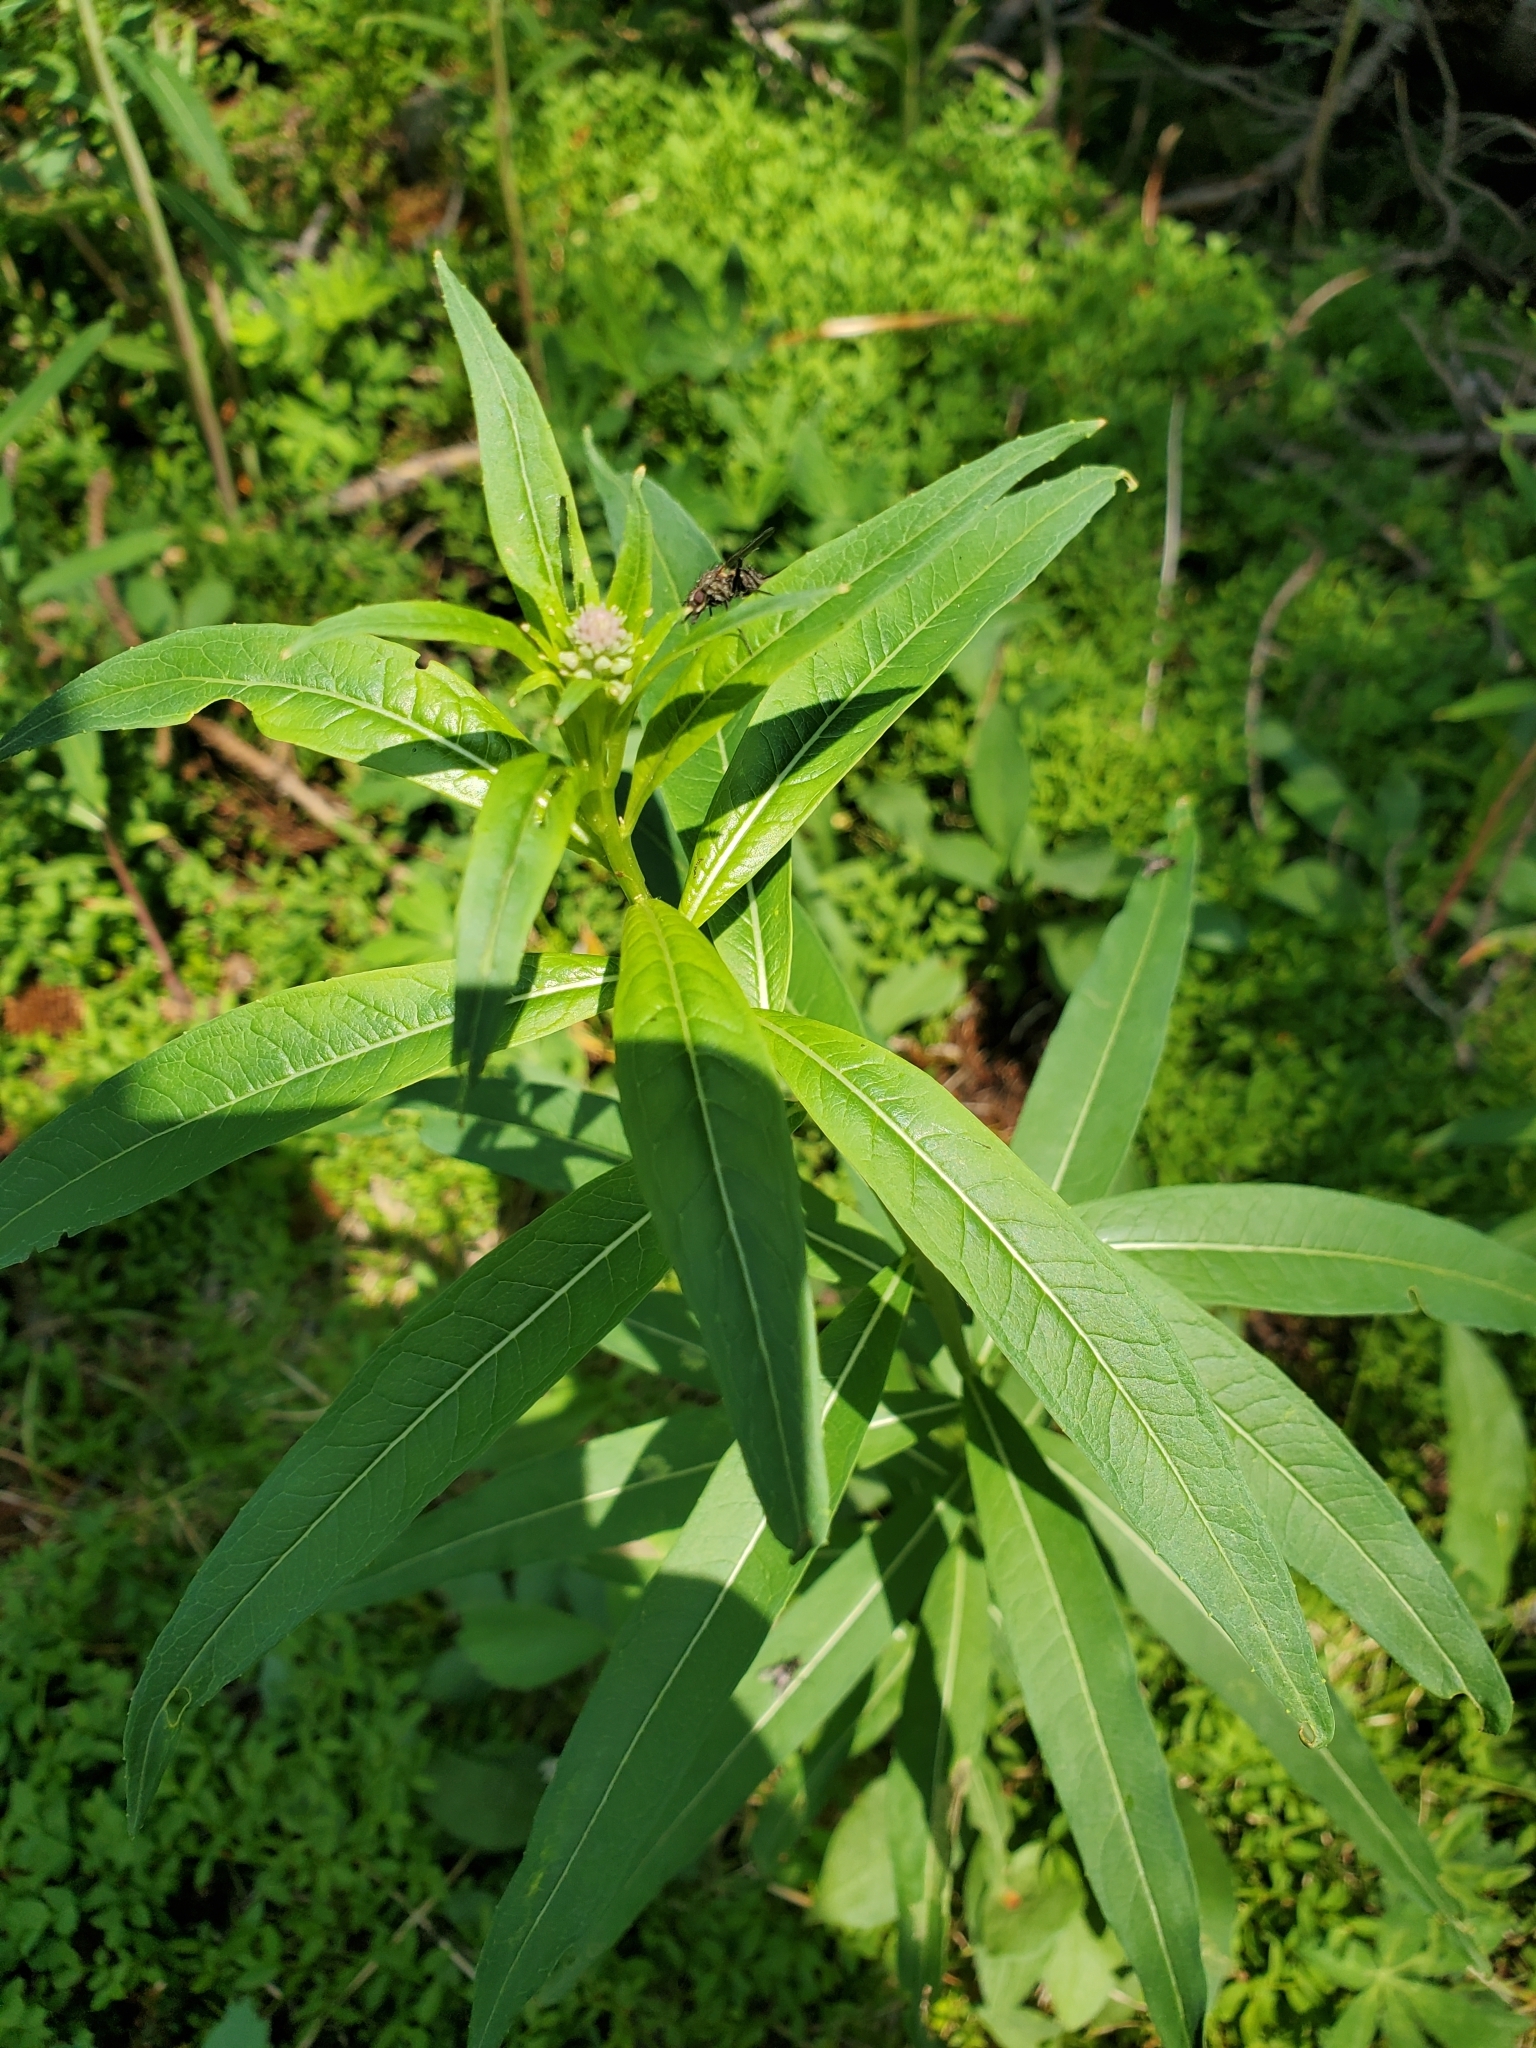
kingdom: Plantae
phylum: Tracheophyta
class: Magnoliopsida
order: Myrtales
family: Onagraceae
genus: Chamaenerion
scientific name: Chamaenerion angustifolium
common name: Fireweed
